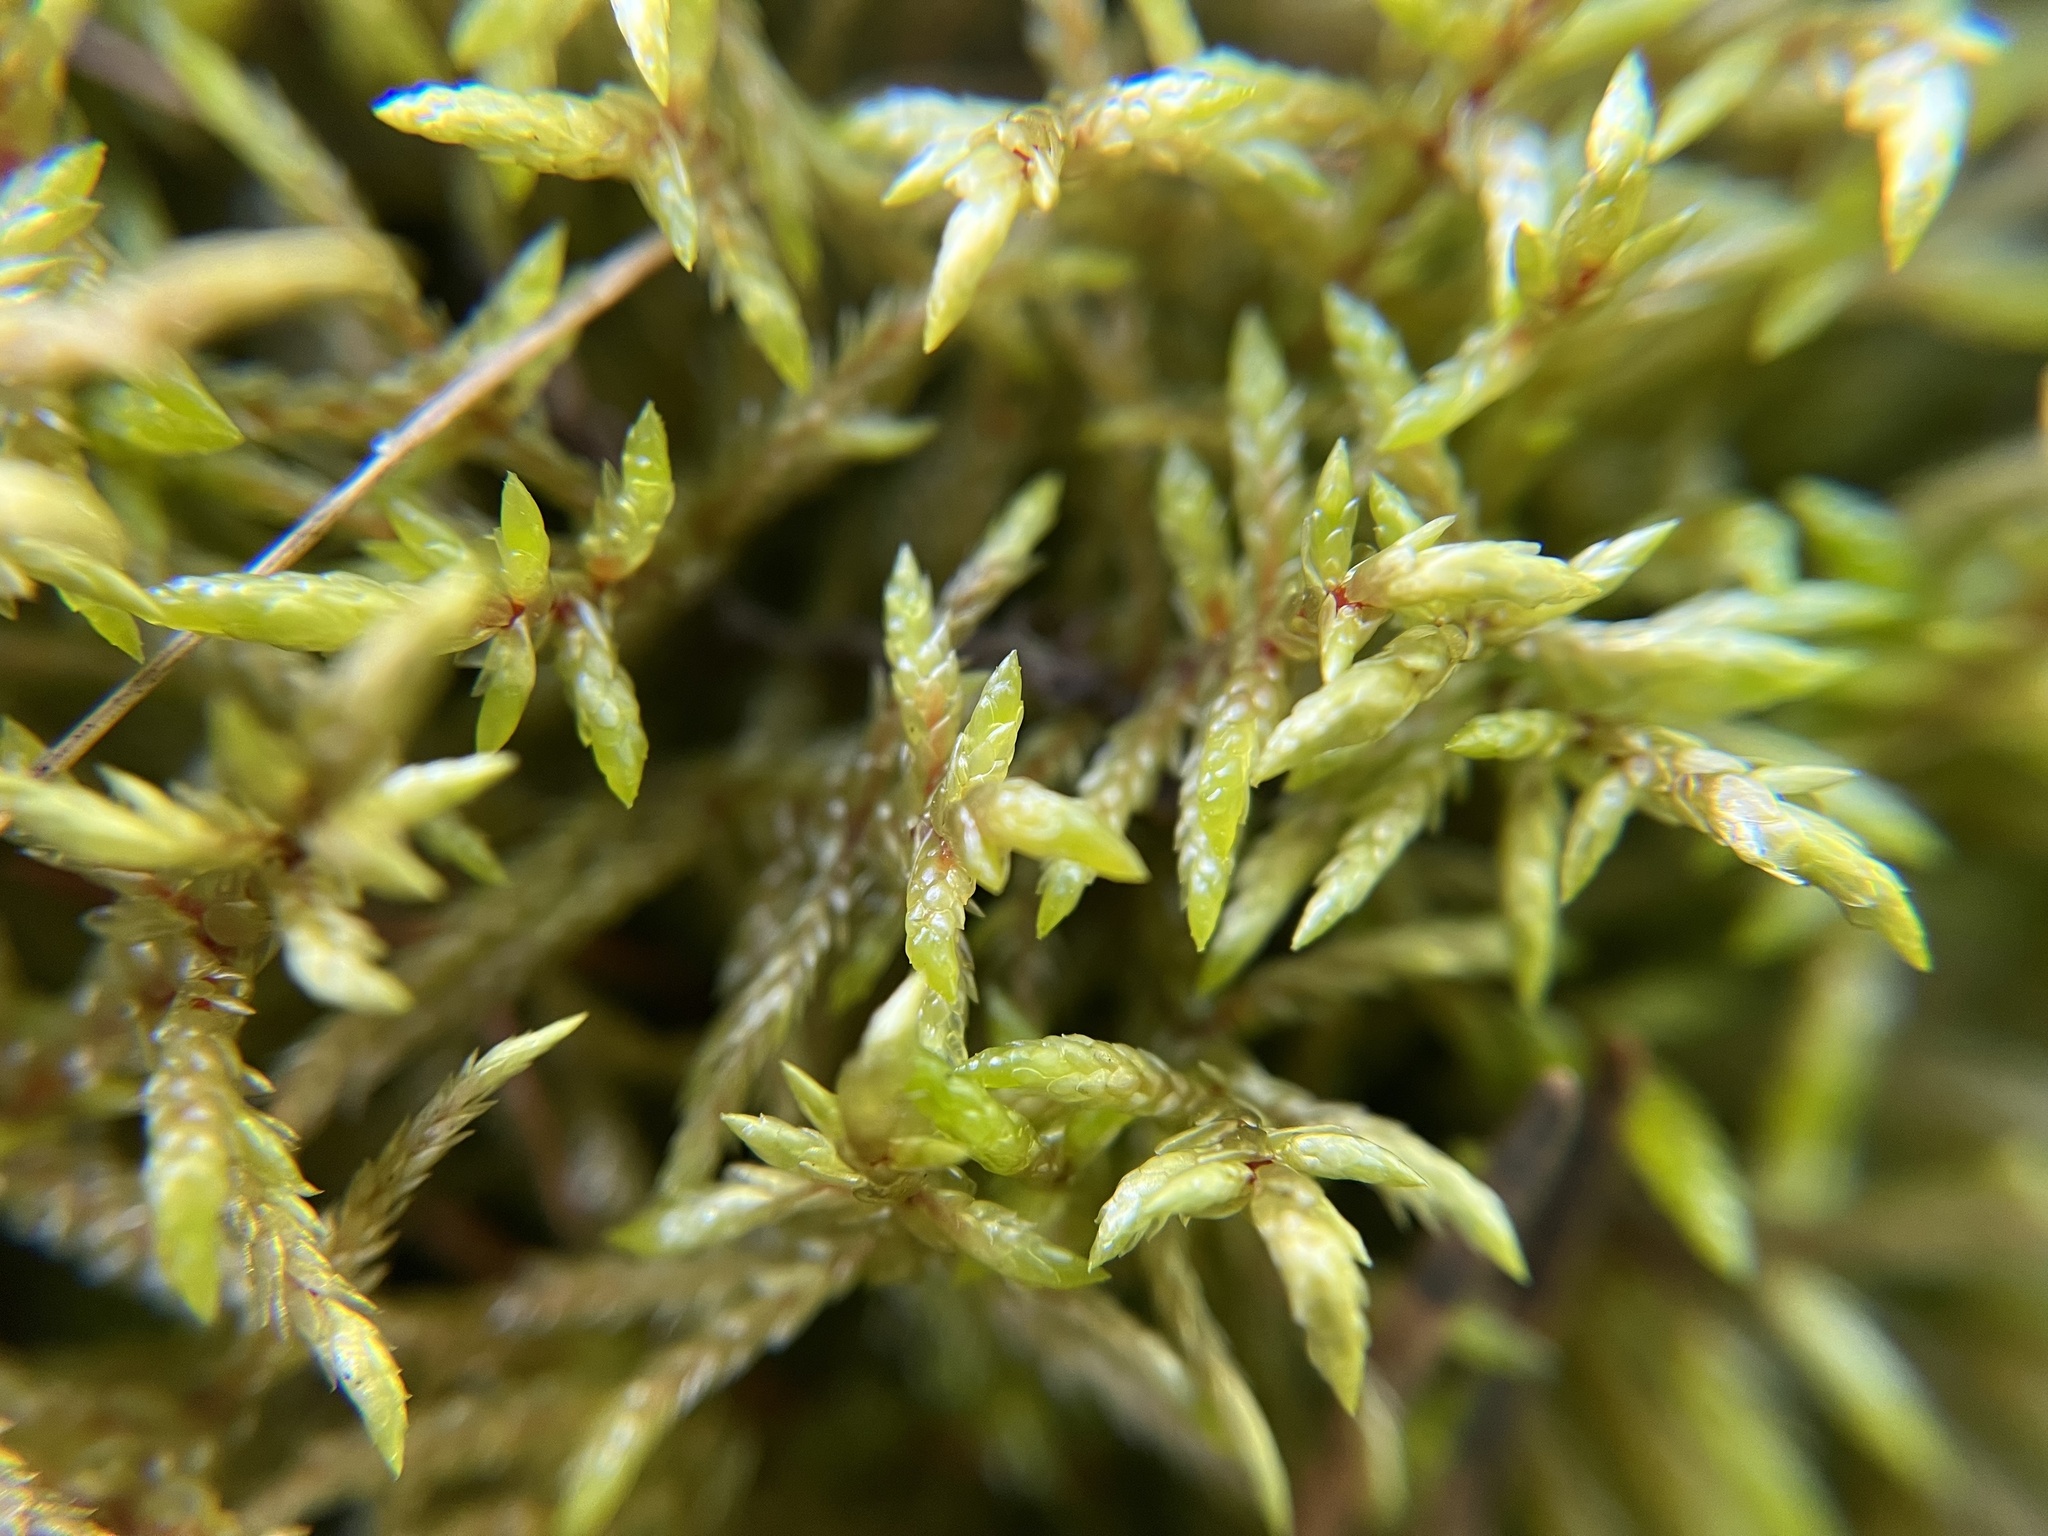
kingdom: Plantae
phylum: Bryophyta
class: Bryopsida
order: Hypnales
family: Hylocomiaceae
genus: Pleurozium
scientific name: Pleurozium schreberi
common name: Red-stemmed feather moss
